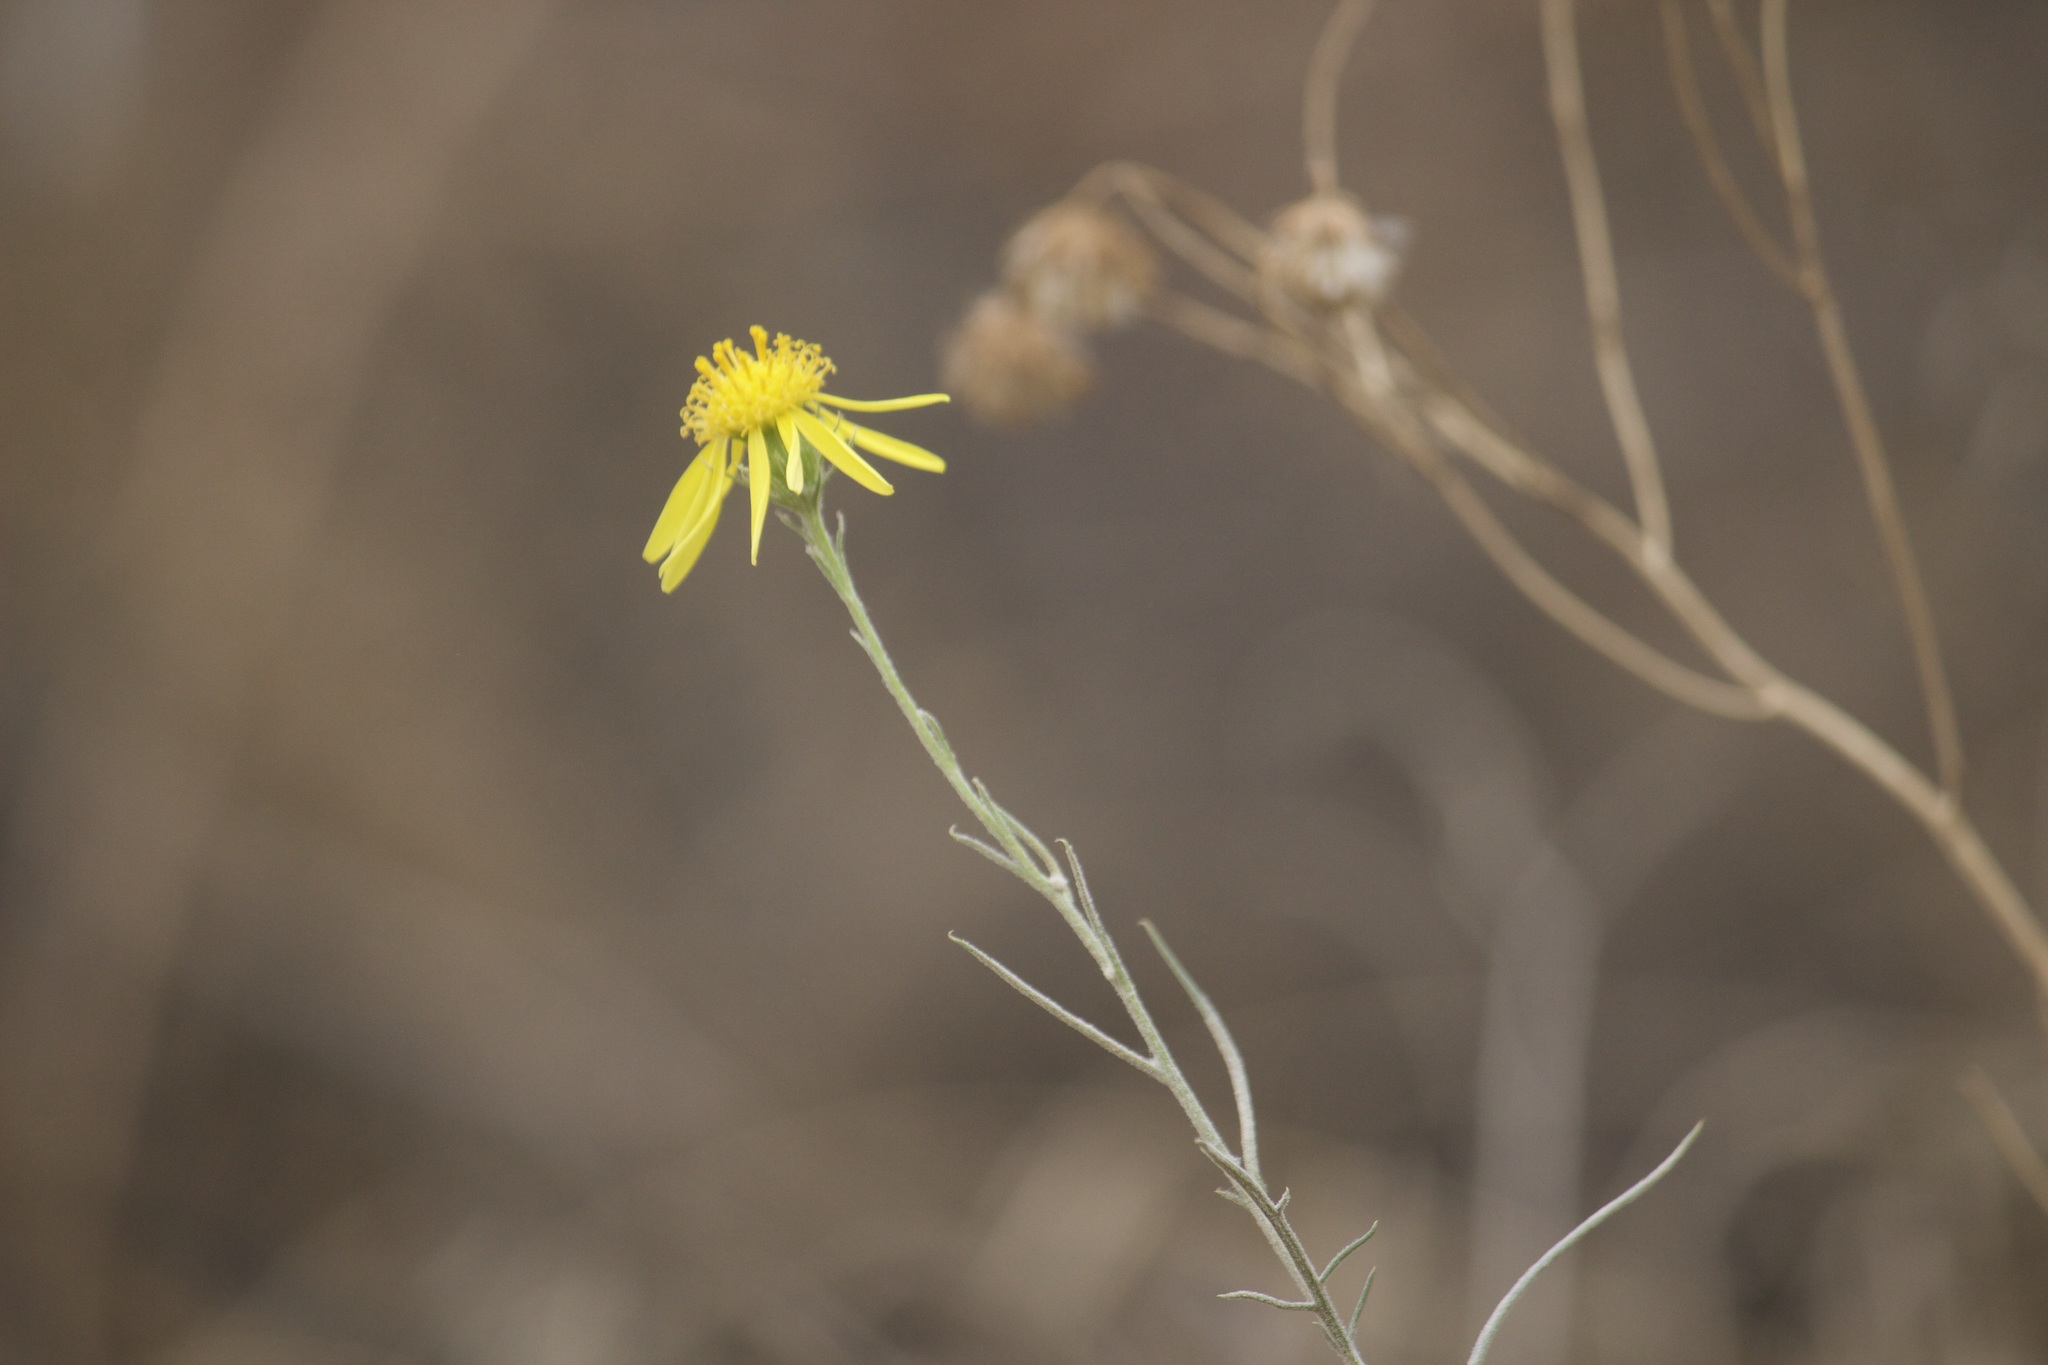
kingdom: Plantae
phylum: Tracheophyta
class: Magnoliopsida
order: Asterales
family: Asteraceae
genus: Senecio
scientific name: Senecio flaccidus
